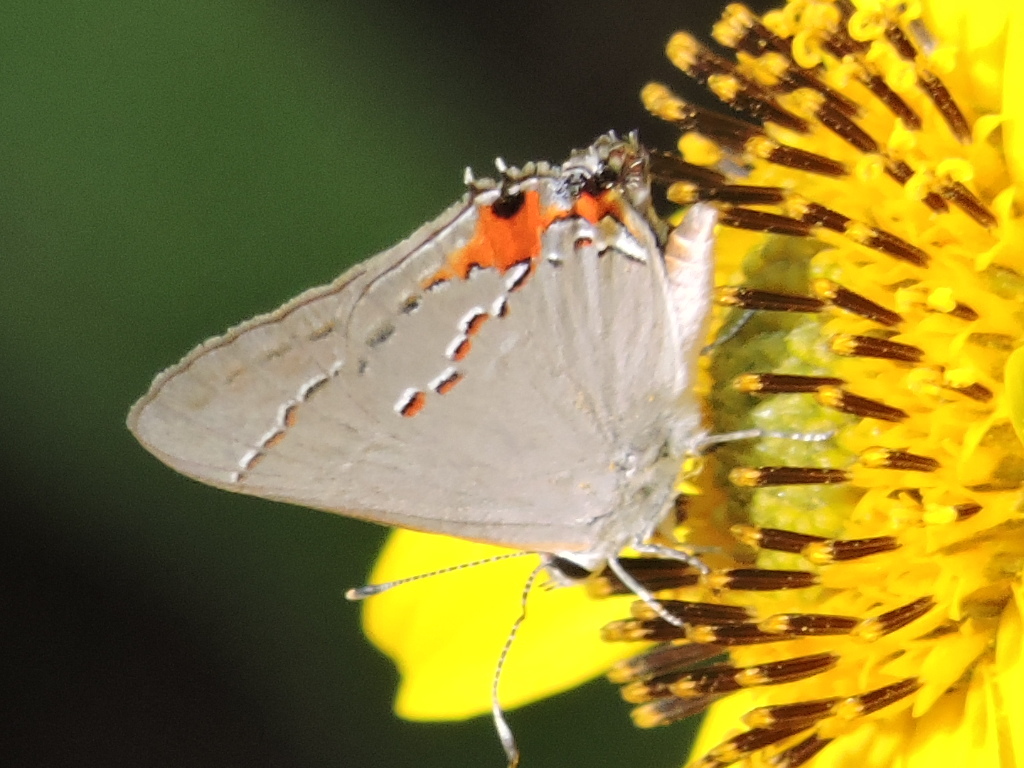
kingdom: Animalia
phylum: Arthropoda
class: Insecta
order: Lepidoptera
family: Lycaenidae
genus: Strymon
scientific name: Strymon melinus
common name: Gray hairstreak
